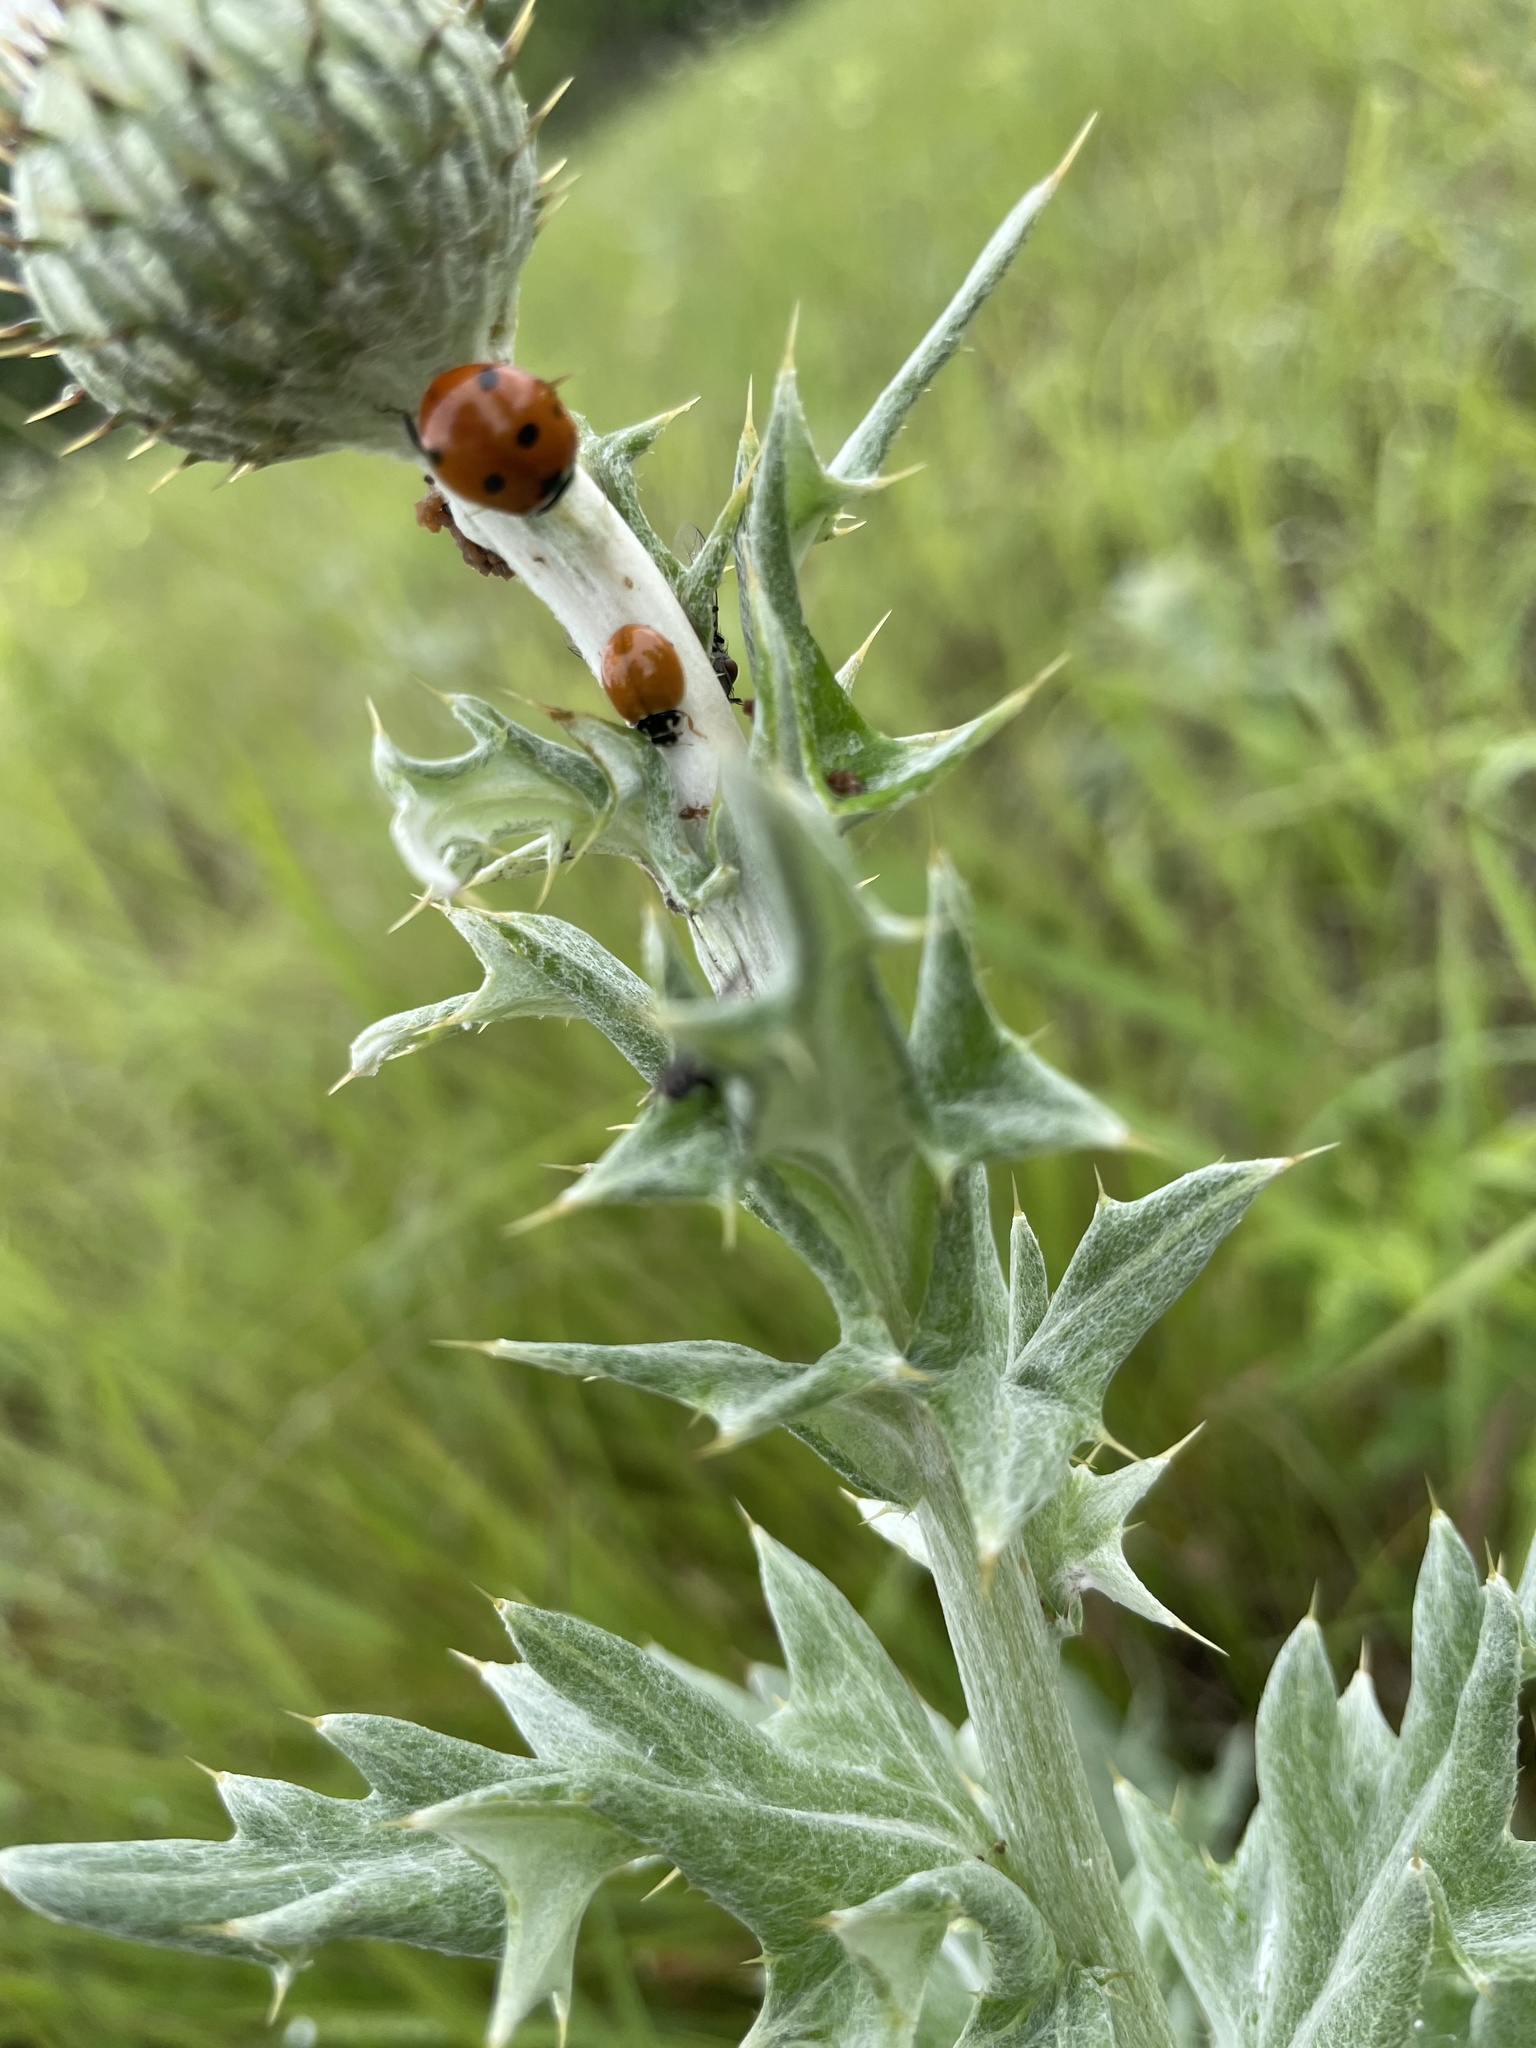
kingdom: Animalia
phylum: Arthropoda
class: Insecta
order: Coleoptera
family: Coccinellidae
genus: Cycloneda
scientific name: Cycloneda munda
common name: Polished lady beetle
